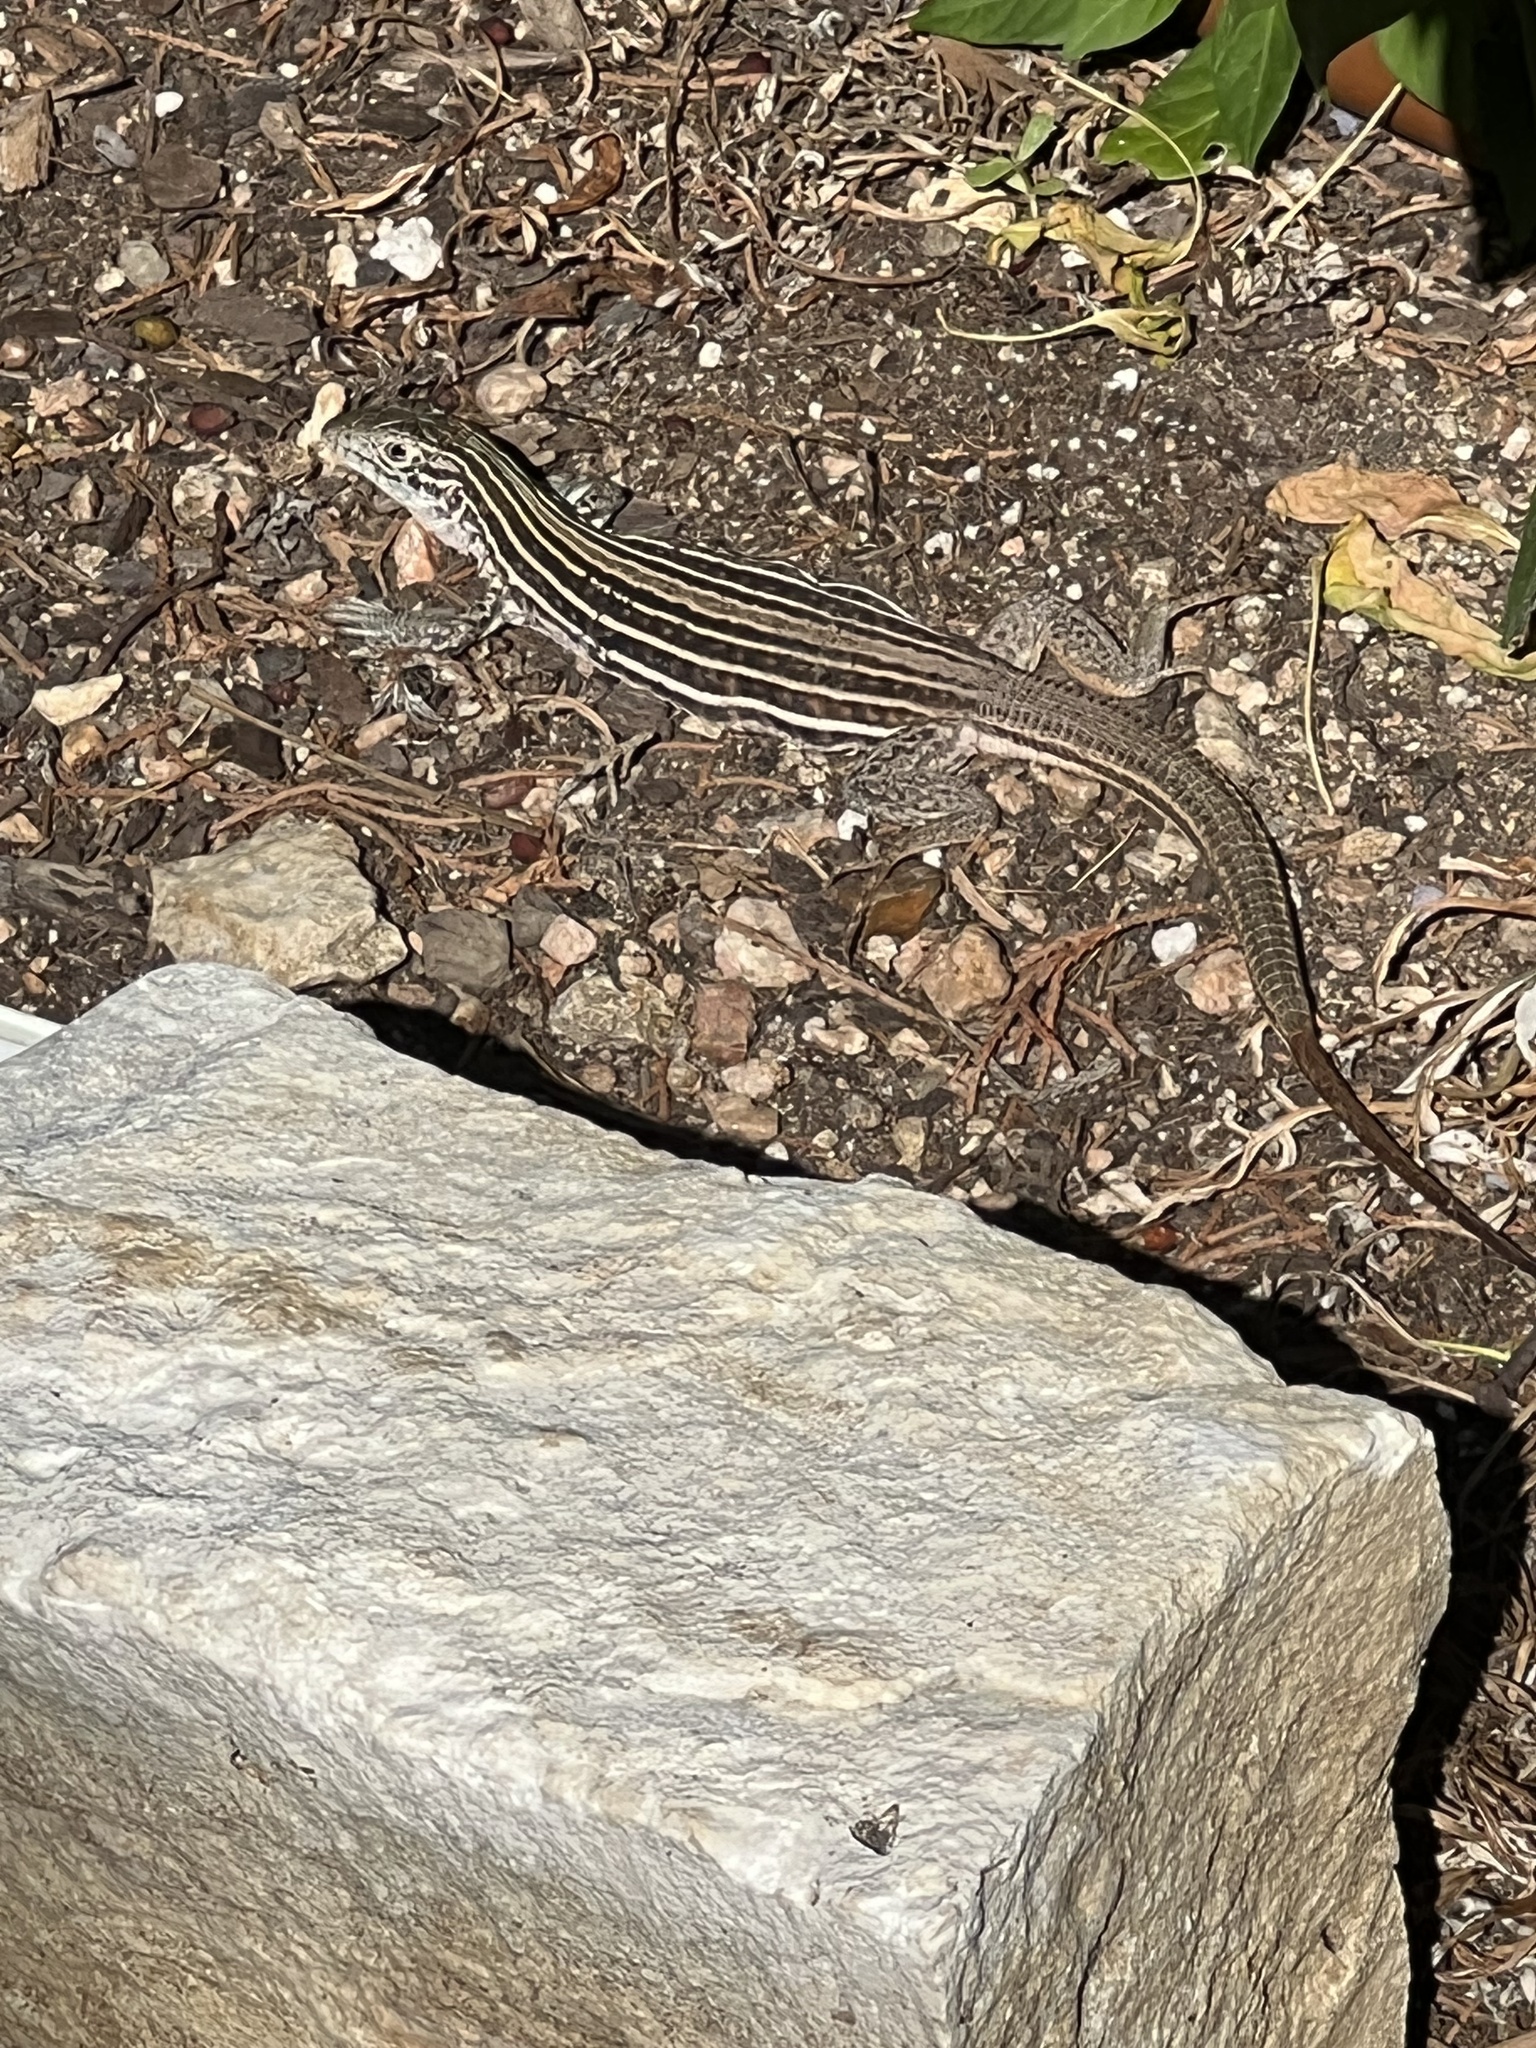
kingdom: Animalia
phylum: Chordata
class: Squamata
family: Teiidae
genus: Aspidoscelis
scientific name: Aspidoscelis gularis
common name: Eastern spotted whiptail
